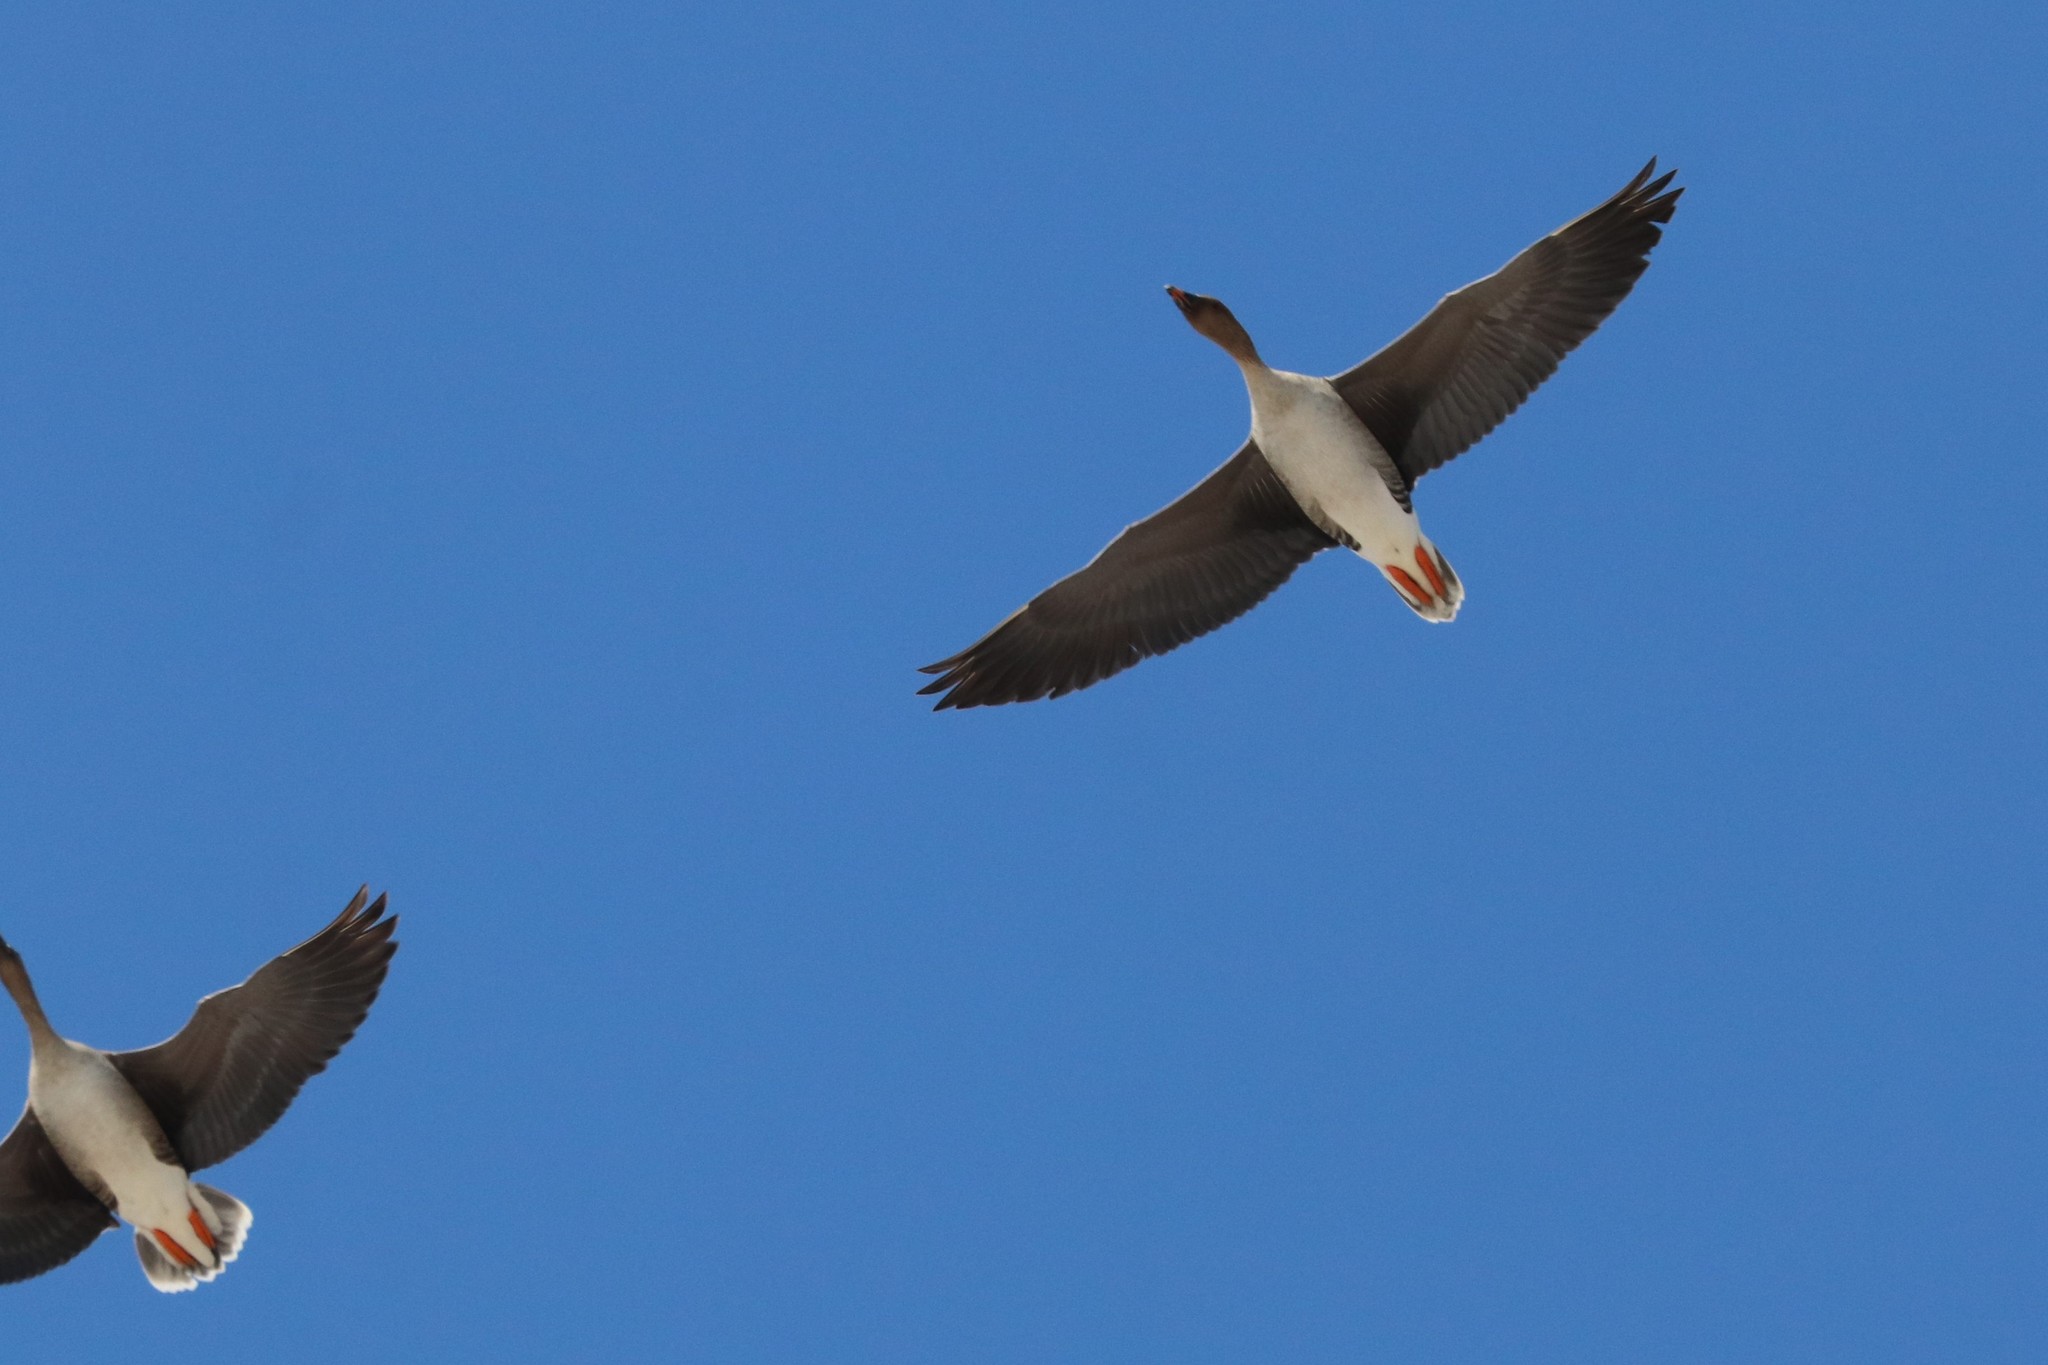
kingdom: Animalia
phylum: Chordata
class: Aves
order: Anseriformes
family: Anatidae
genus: Anser
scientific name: Anser fabalis
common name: Bean goose
